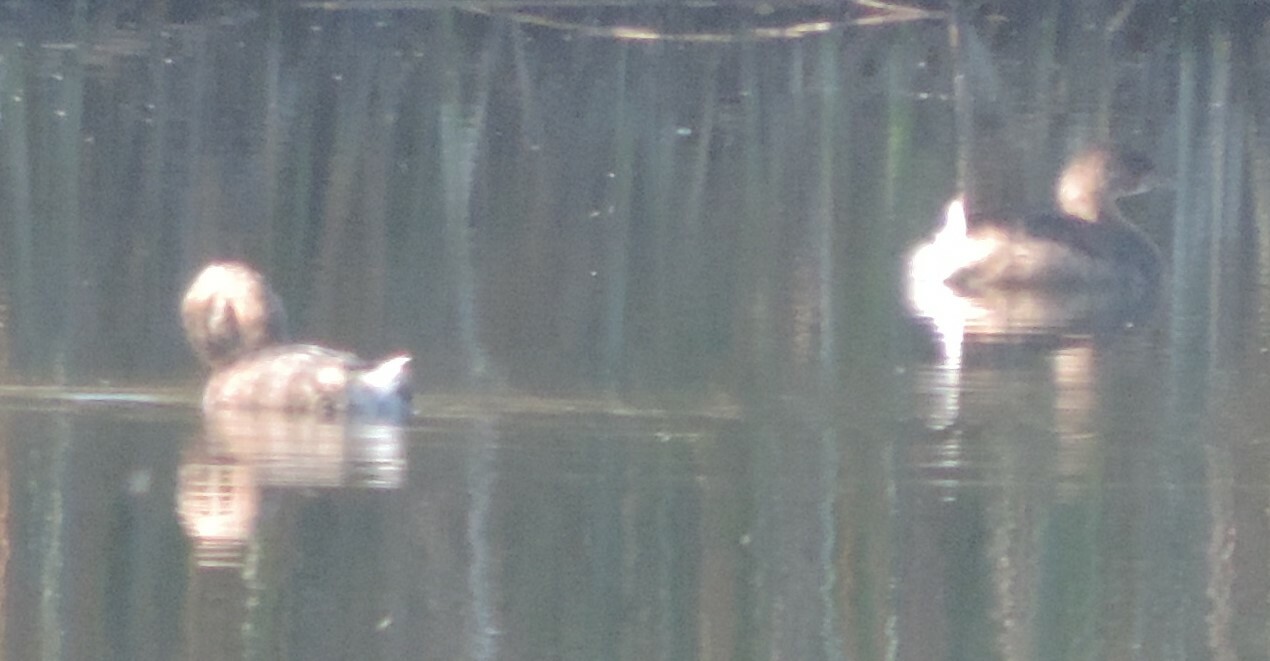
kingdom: Animalia
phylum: Chordata
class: Aves
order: Podicipediformes
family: Podicipedidae
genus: Podilymbus
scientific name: Podilymbus podiceps
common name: Pied-billed grebe
